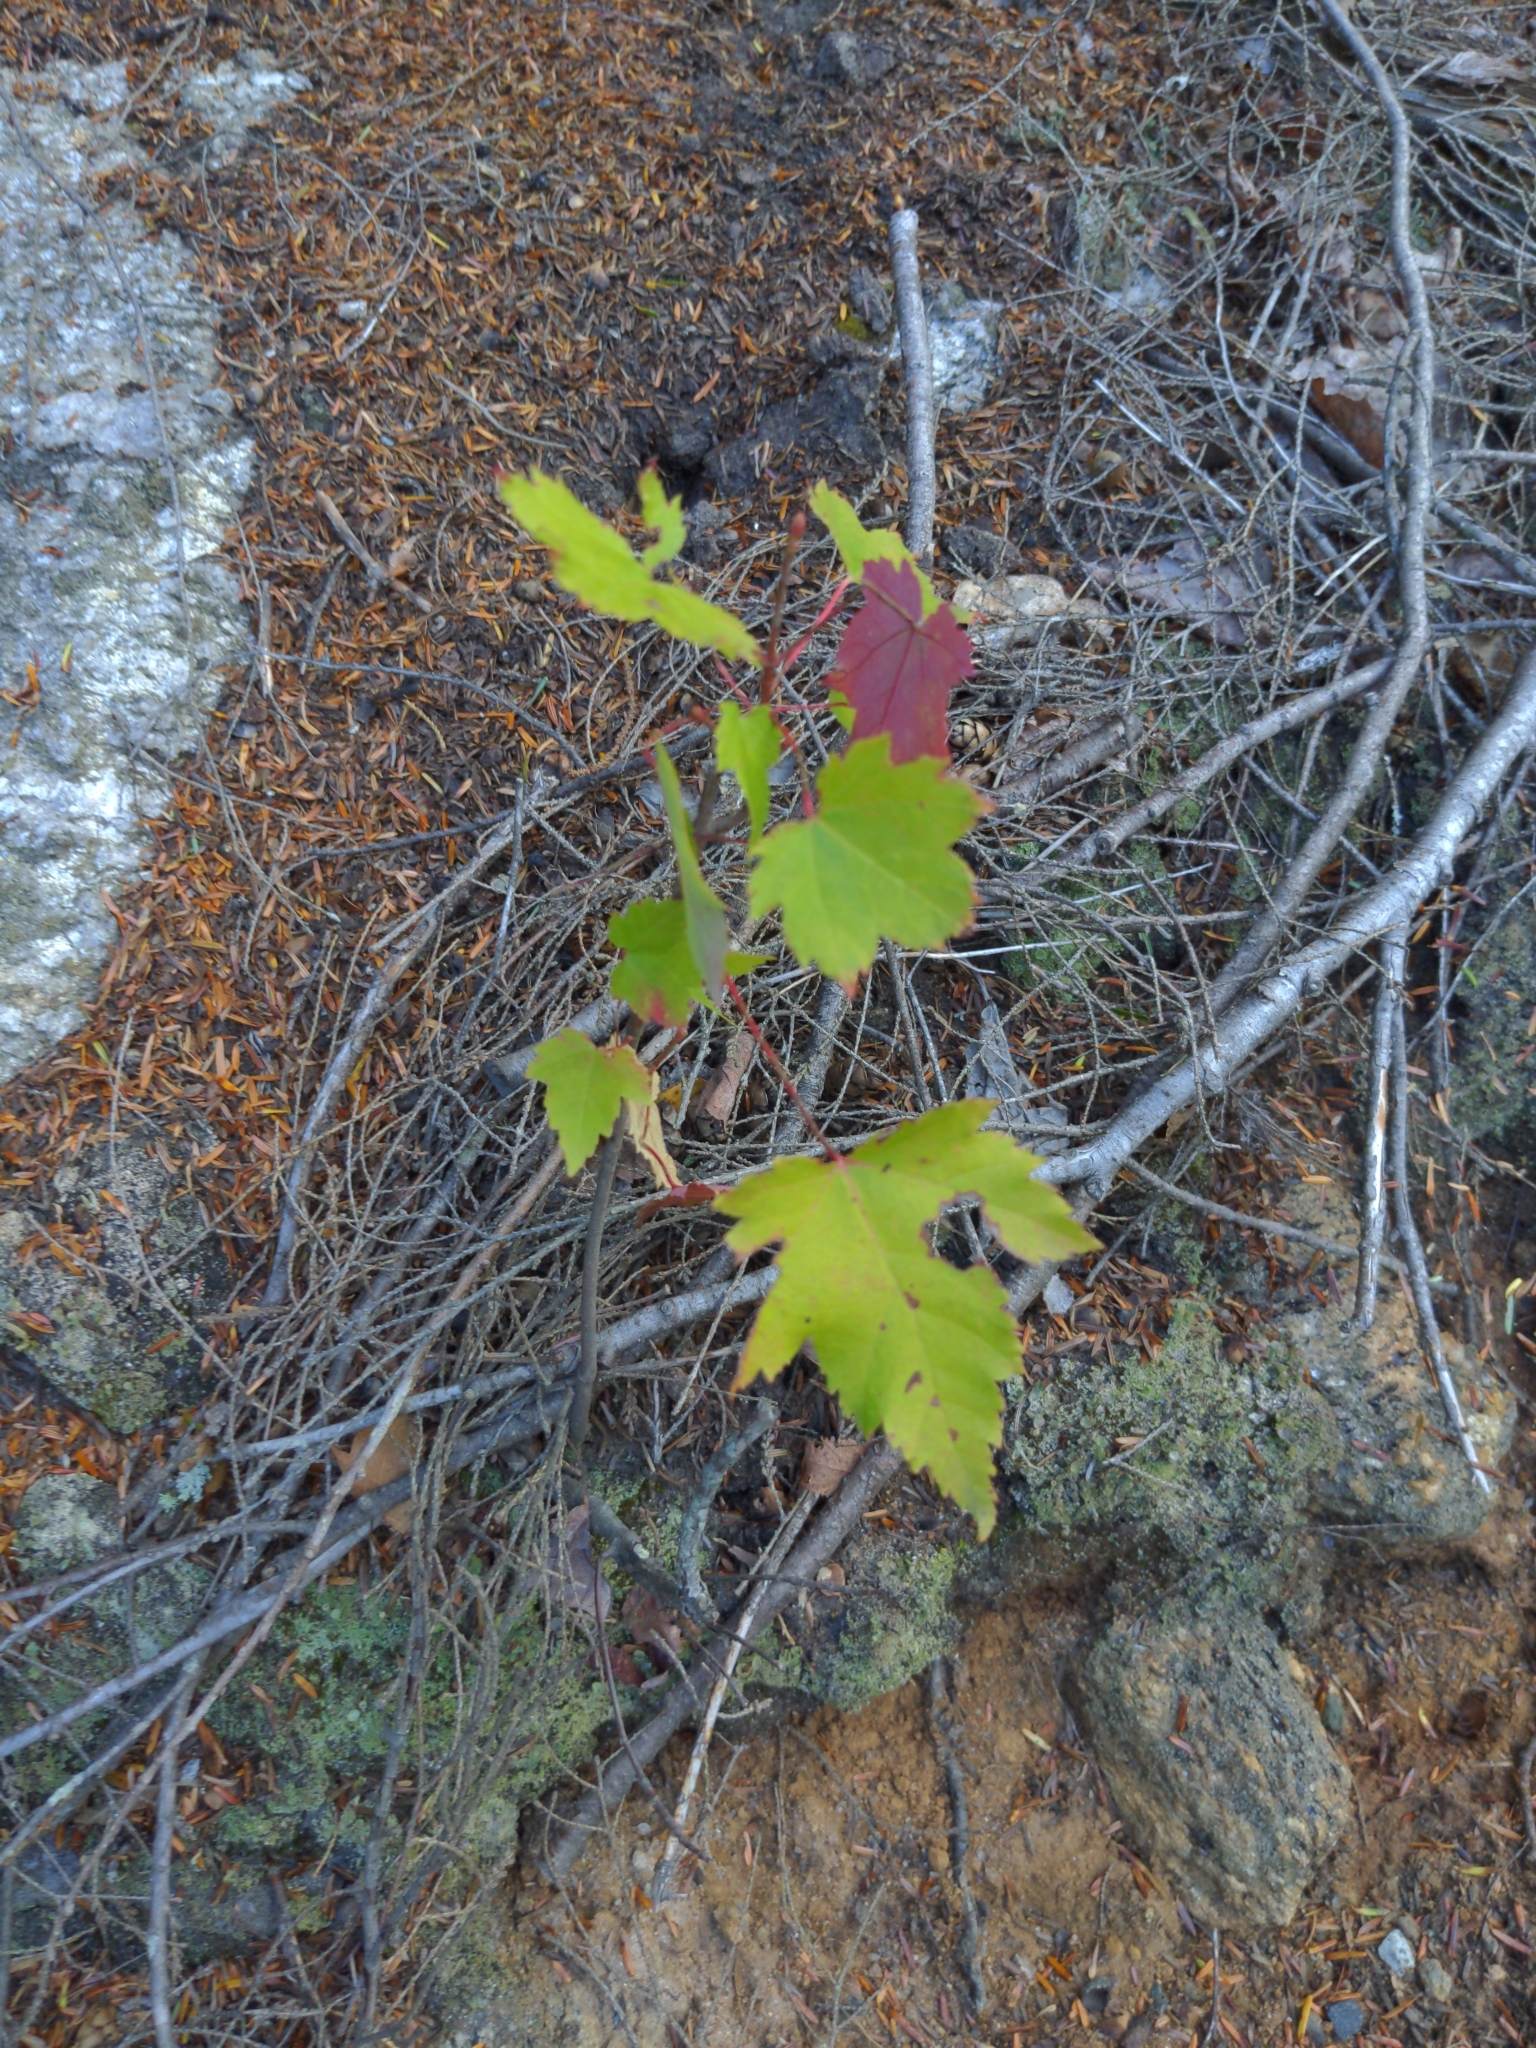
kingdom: Plantae
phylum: Tracheophyta
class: Magnoliopsida
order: Sapindales
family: Sapindaceae
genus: Acer
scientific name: Acer rubrum
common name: Red maple
